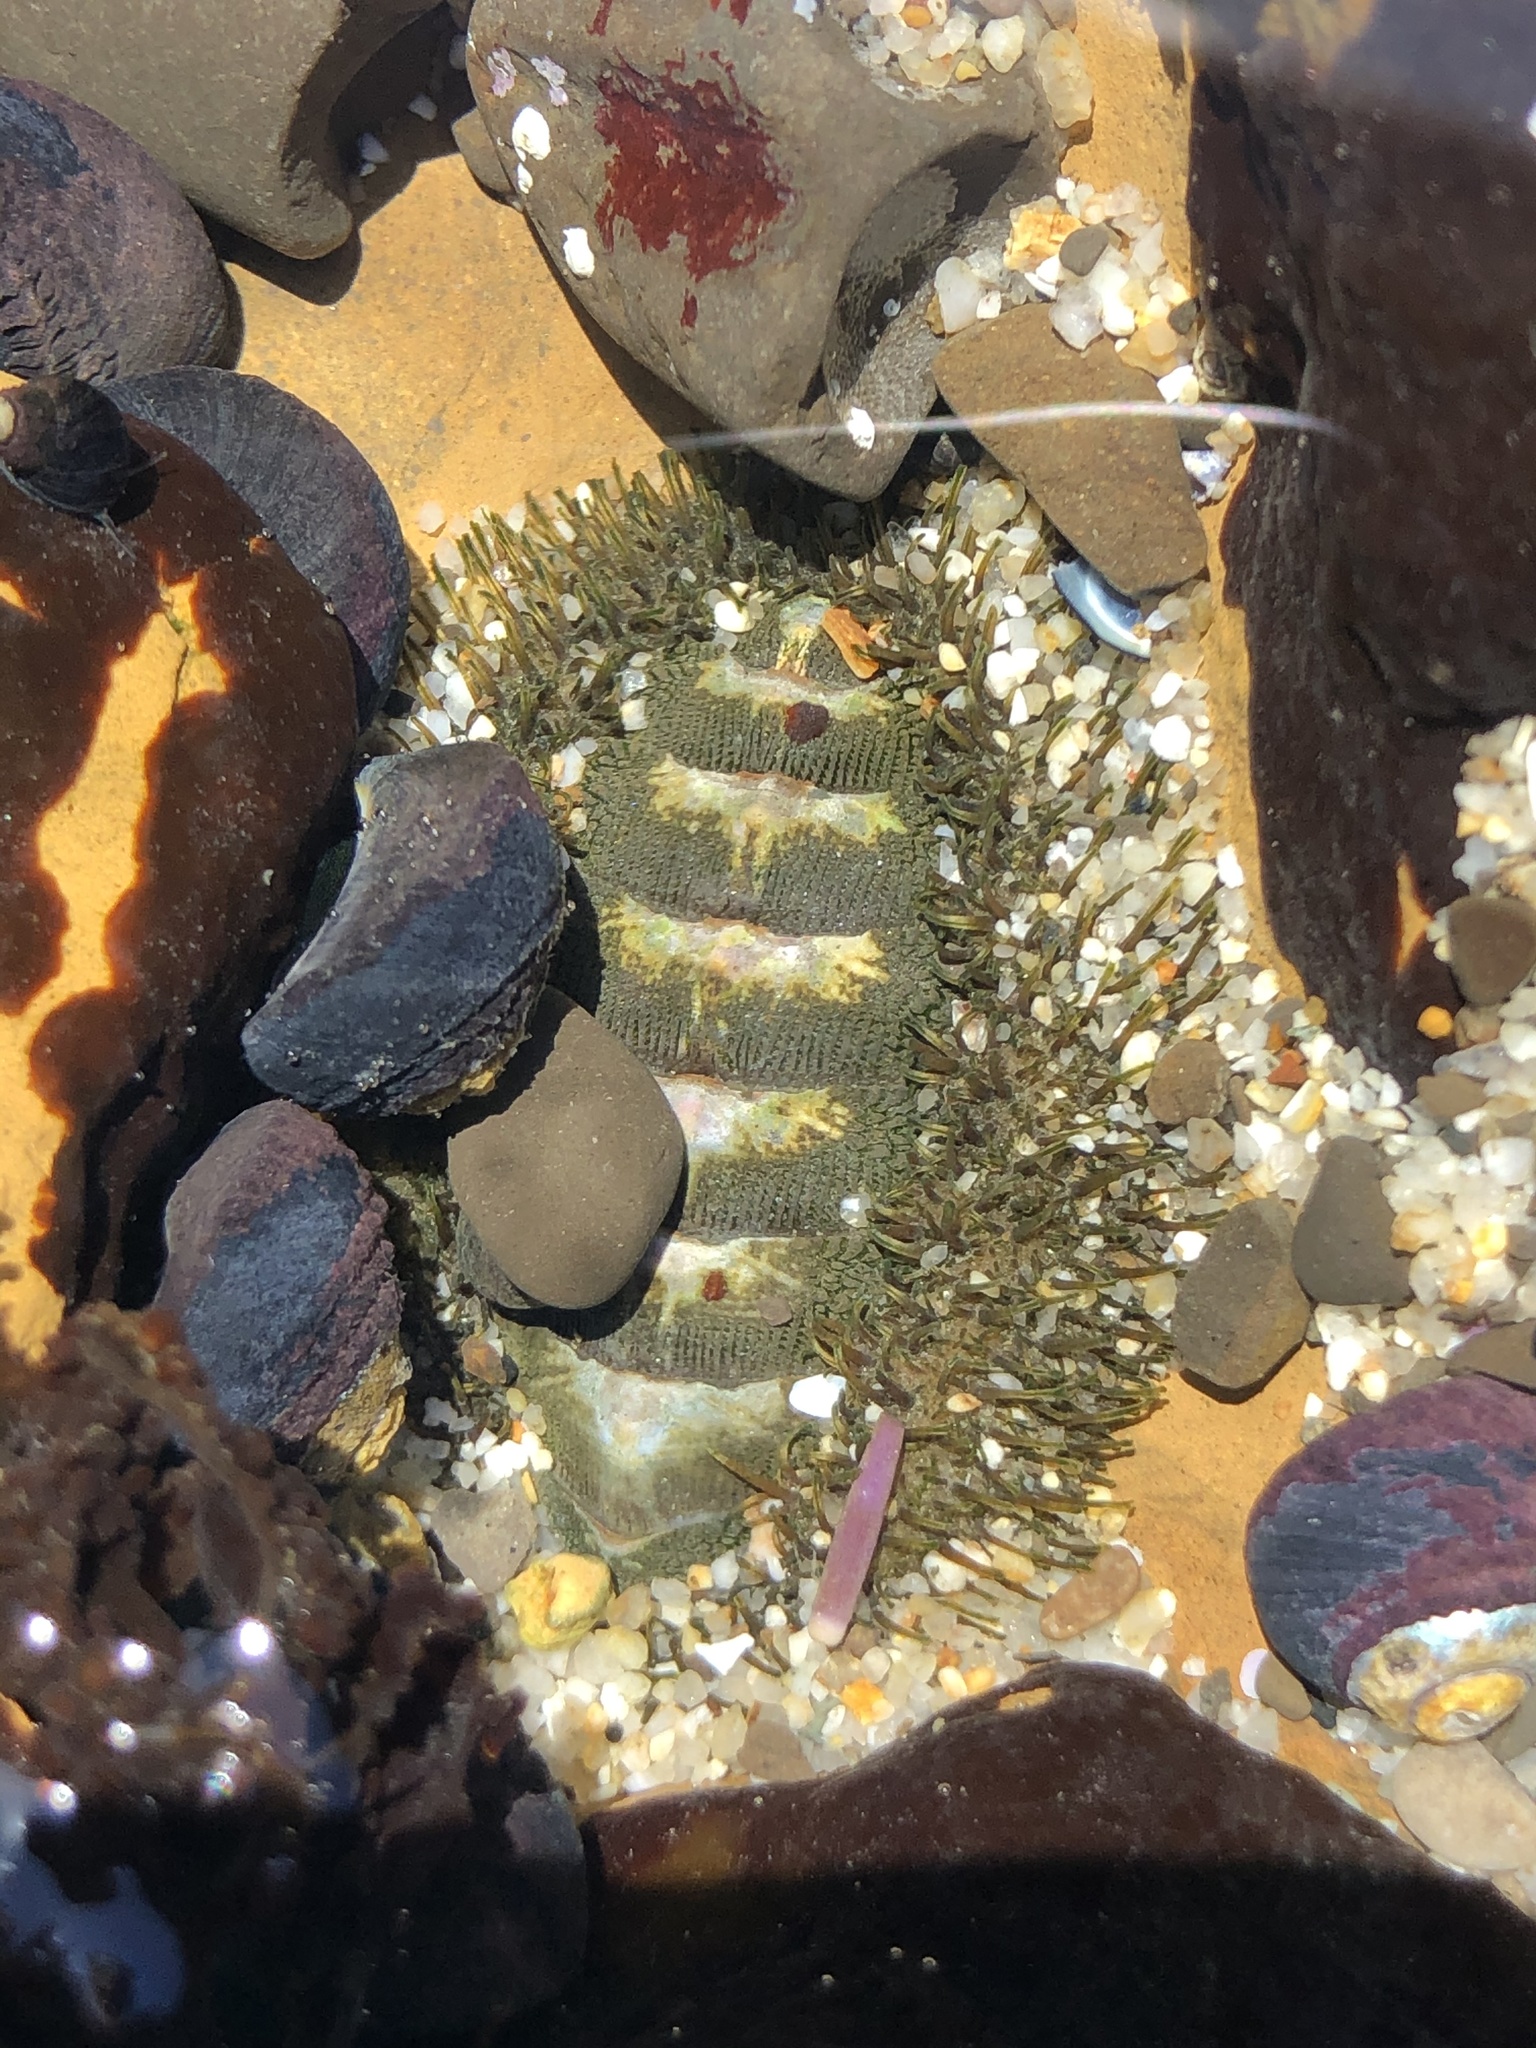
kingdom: Animalia
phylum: Mollusca
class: Polyplacophora
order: Chitonida
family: Mopaliidae
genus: Mopalia
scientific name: Mopalia muscosa
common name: Mossy chiton
